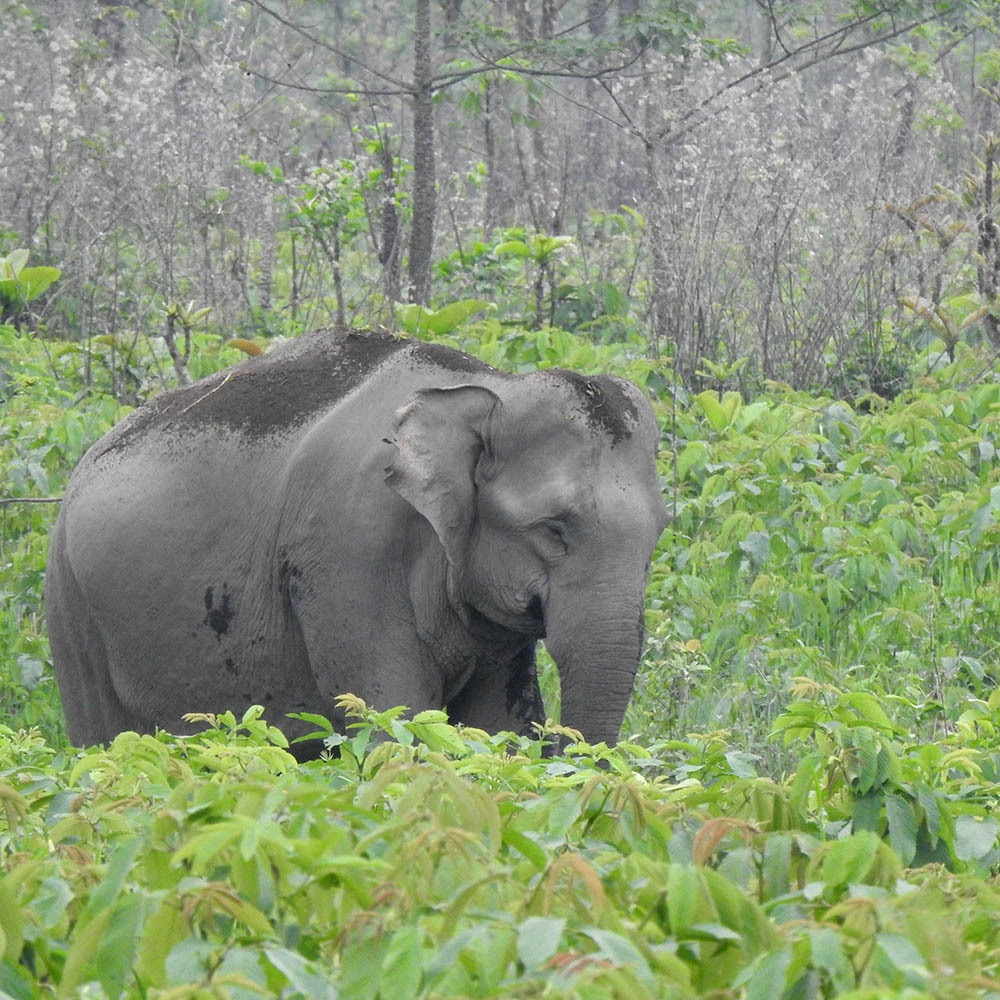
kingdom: Animalia
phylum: Chordata
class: Mammalia
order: Proboscidea
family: Elephantidae
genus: Elephas
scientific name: Elephas maximus
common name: Asian elephant
